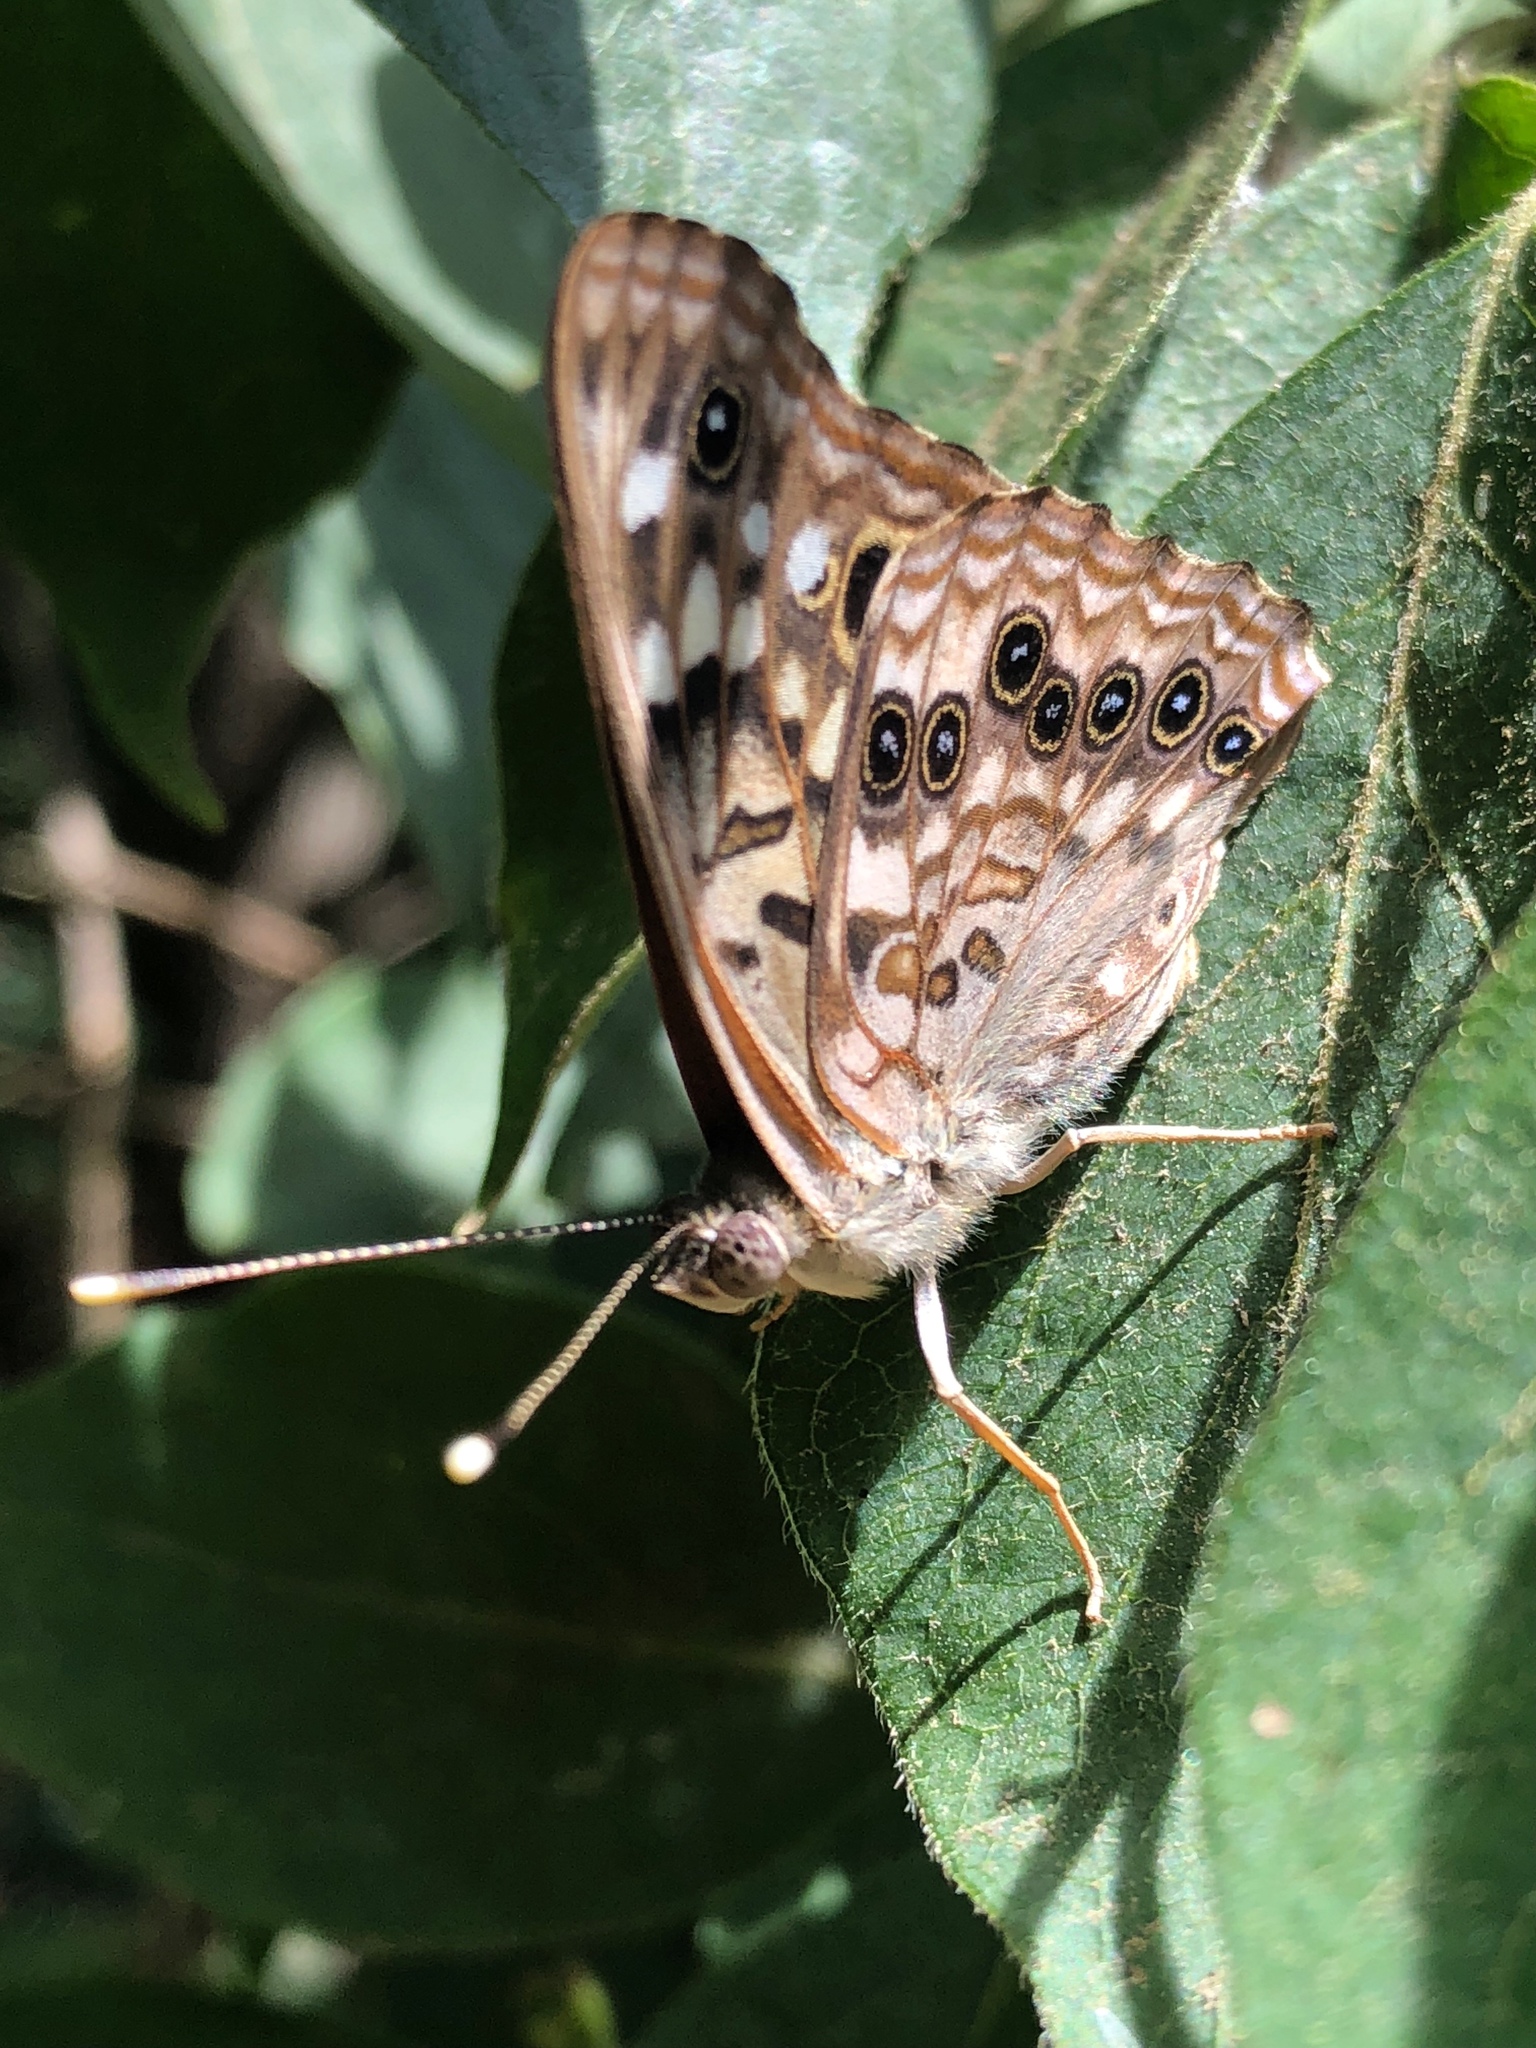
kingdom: Animalia
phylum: Arthropoda
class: Insecta
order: Lepidoptera
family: Nymphalidae
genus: Asterocampa
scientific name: Asterocampa celtis
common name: Hackberry emperor
